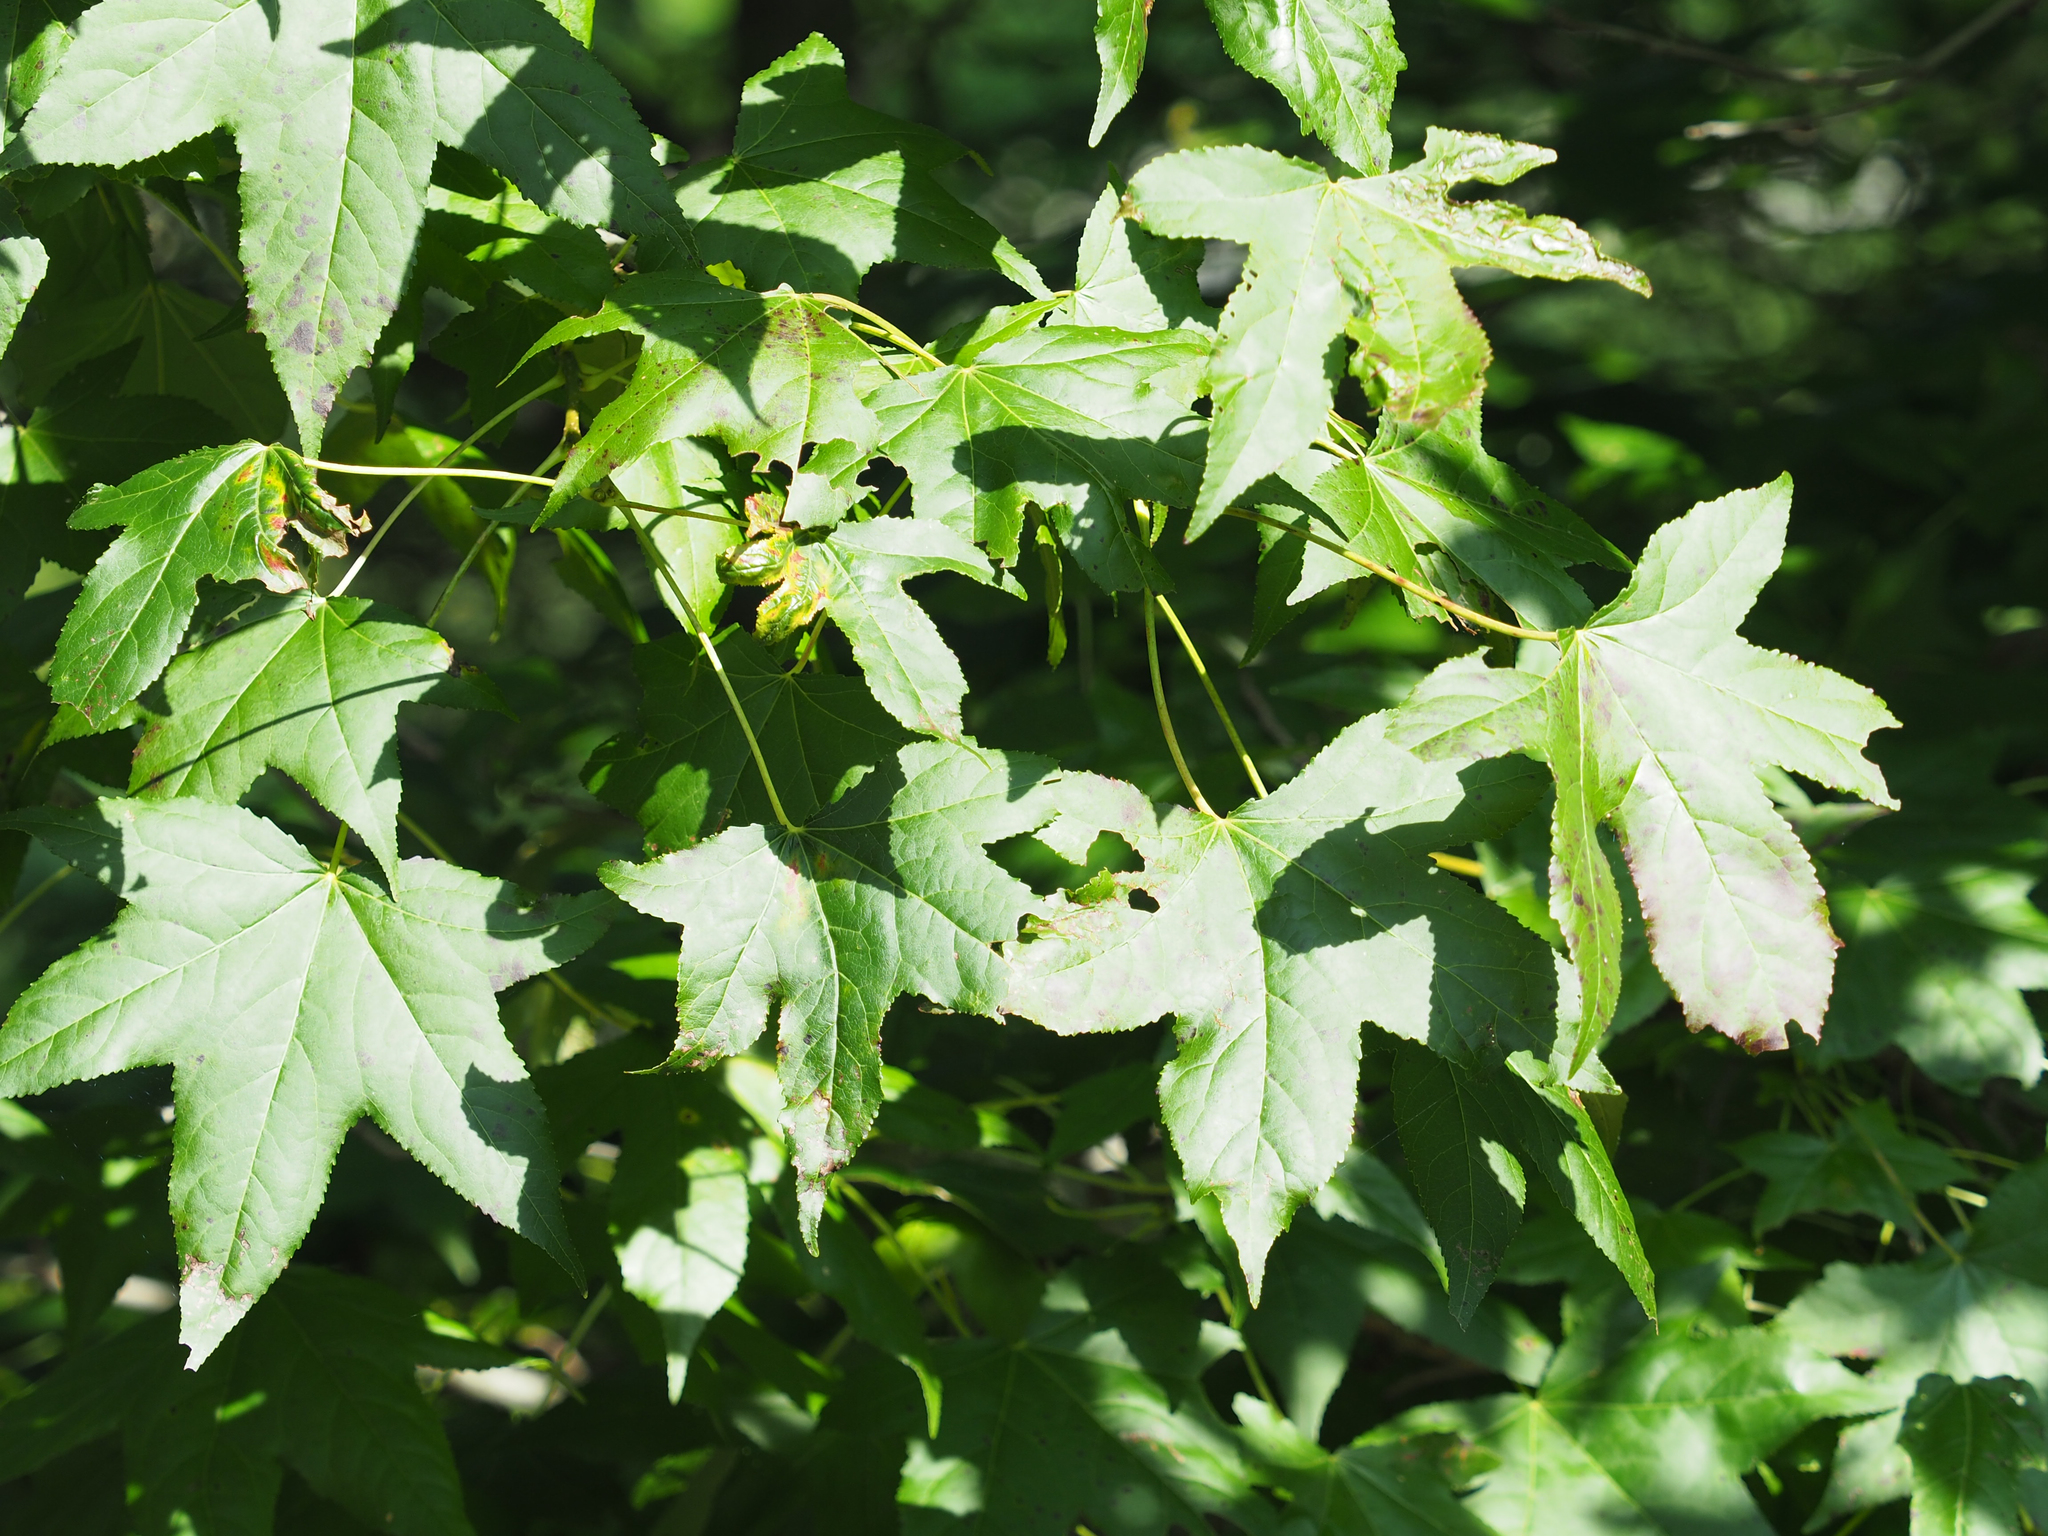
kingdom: Plantae
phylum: Tracheophyta
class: Magnoliopsida
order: Saxifragales
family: Altingiaceae
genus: Liquidambar
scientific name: Liquidambar styraciflua
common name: Sweet gum
